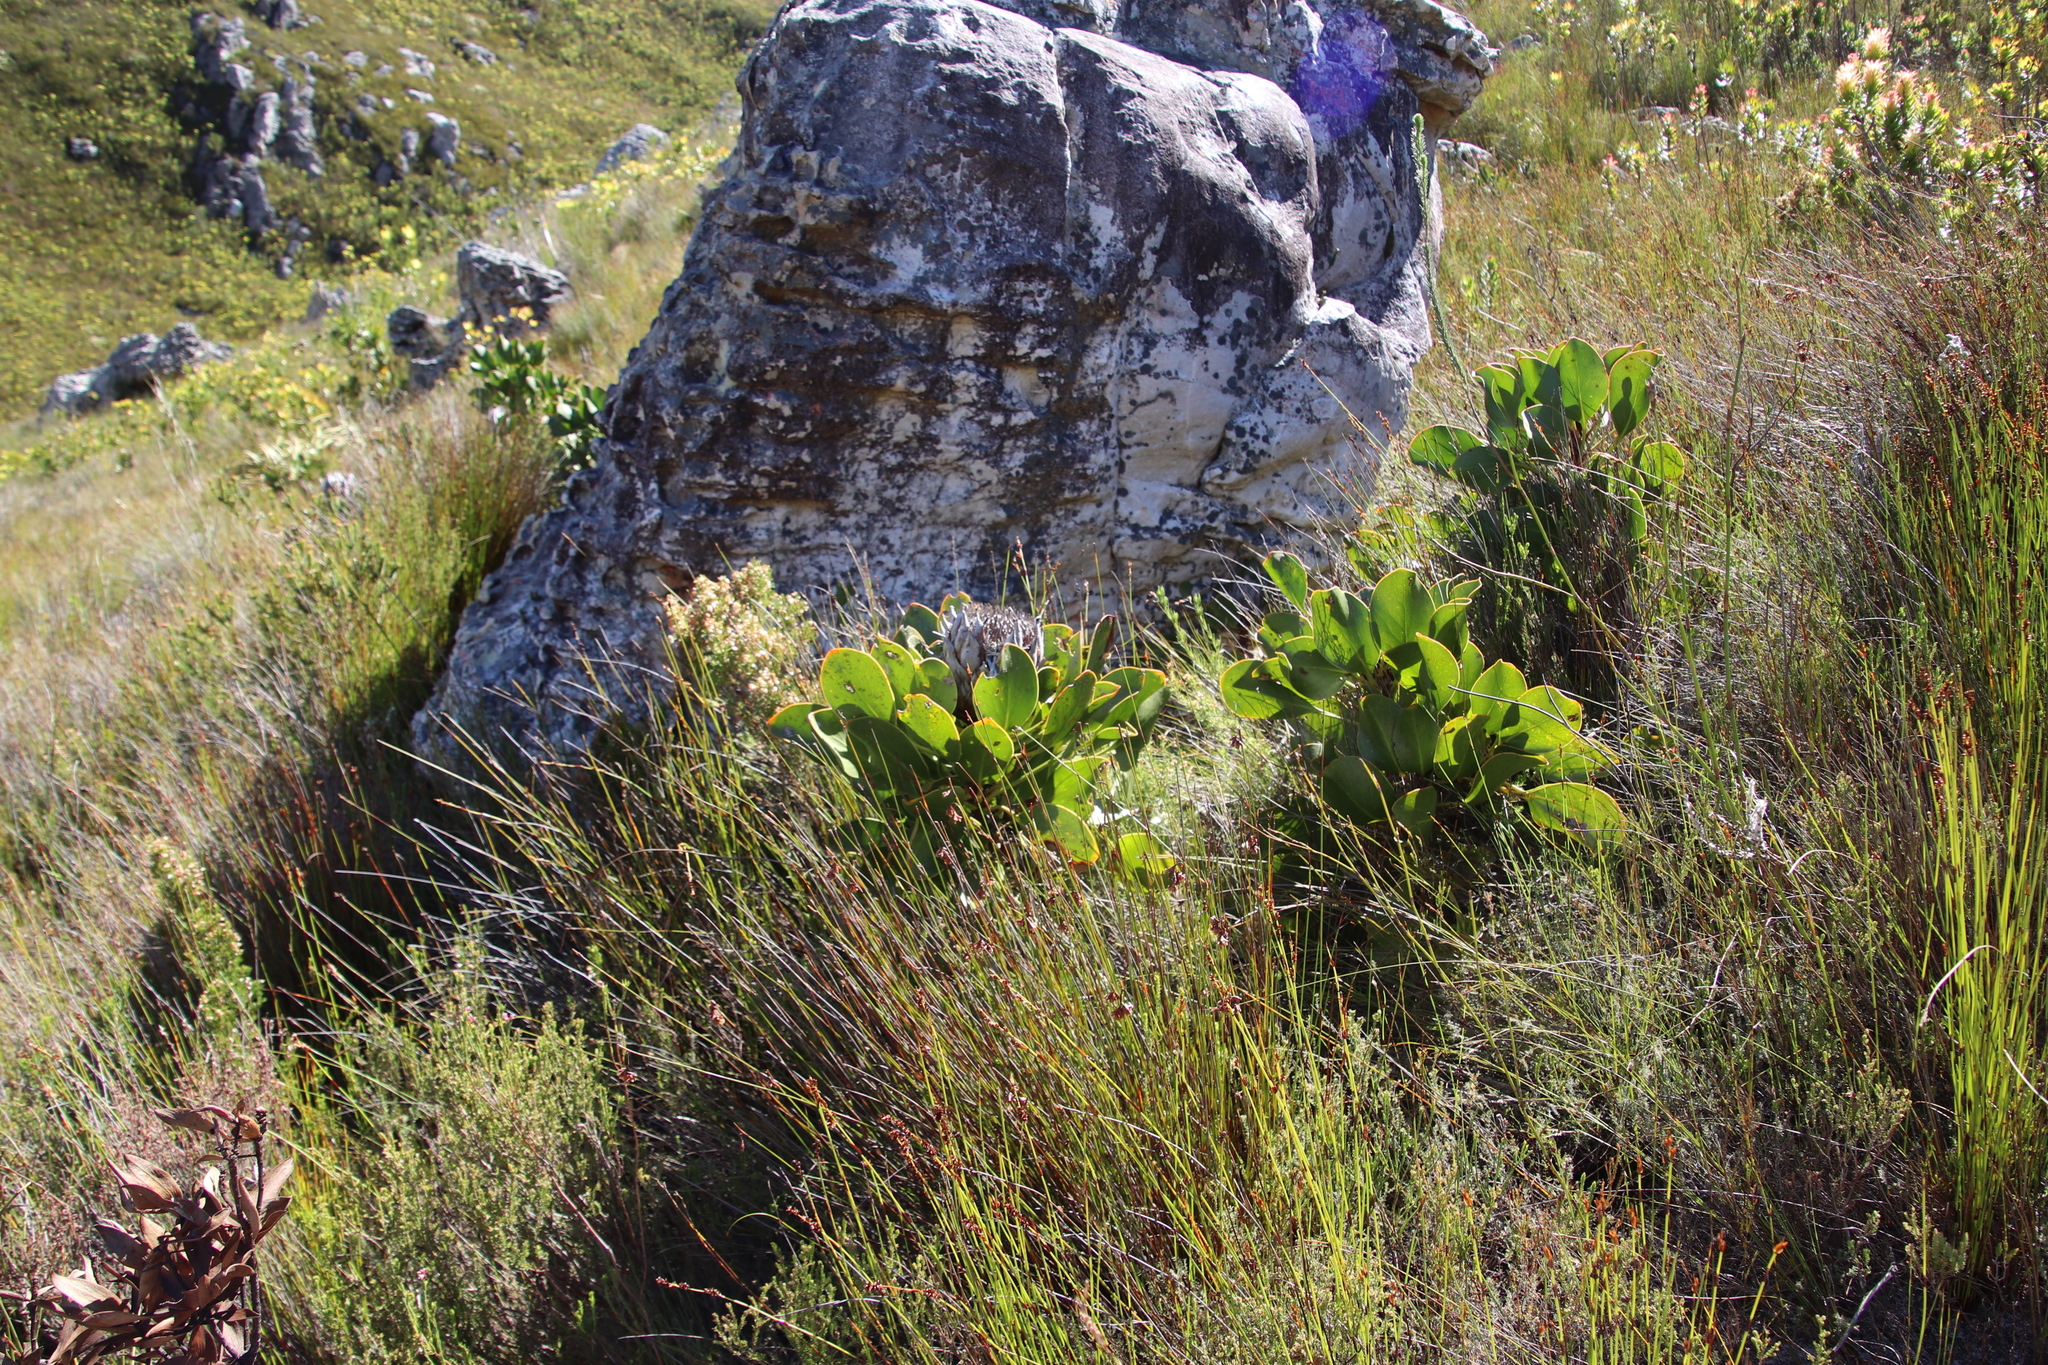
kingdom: Plantae
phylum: Tracheophyta
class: Magnoliopsida
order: Proteales
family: Proteaceae
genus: Protea
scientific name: Protea cynaroides
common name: King protea
